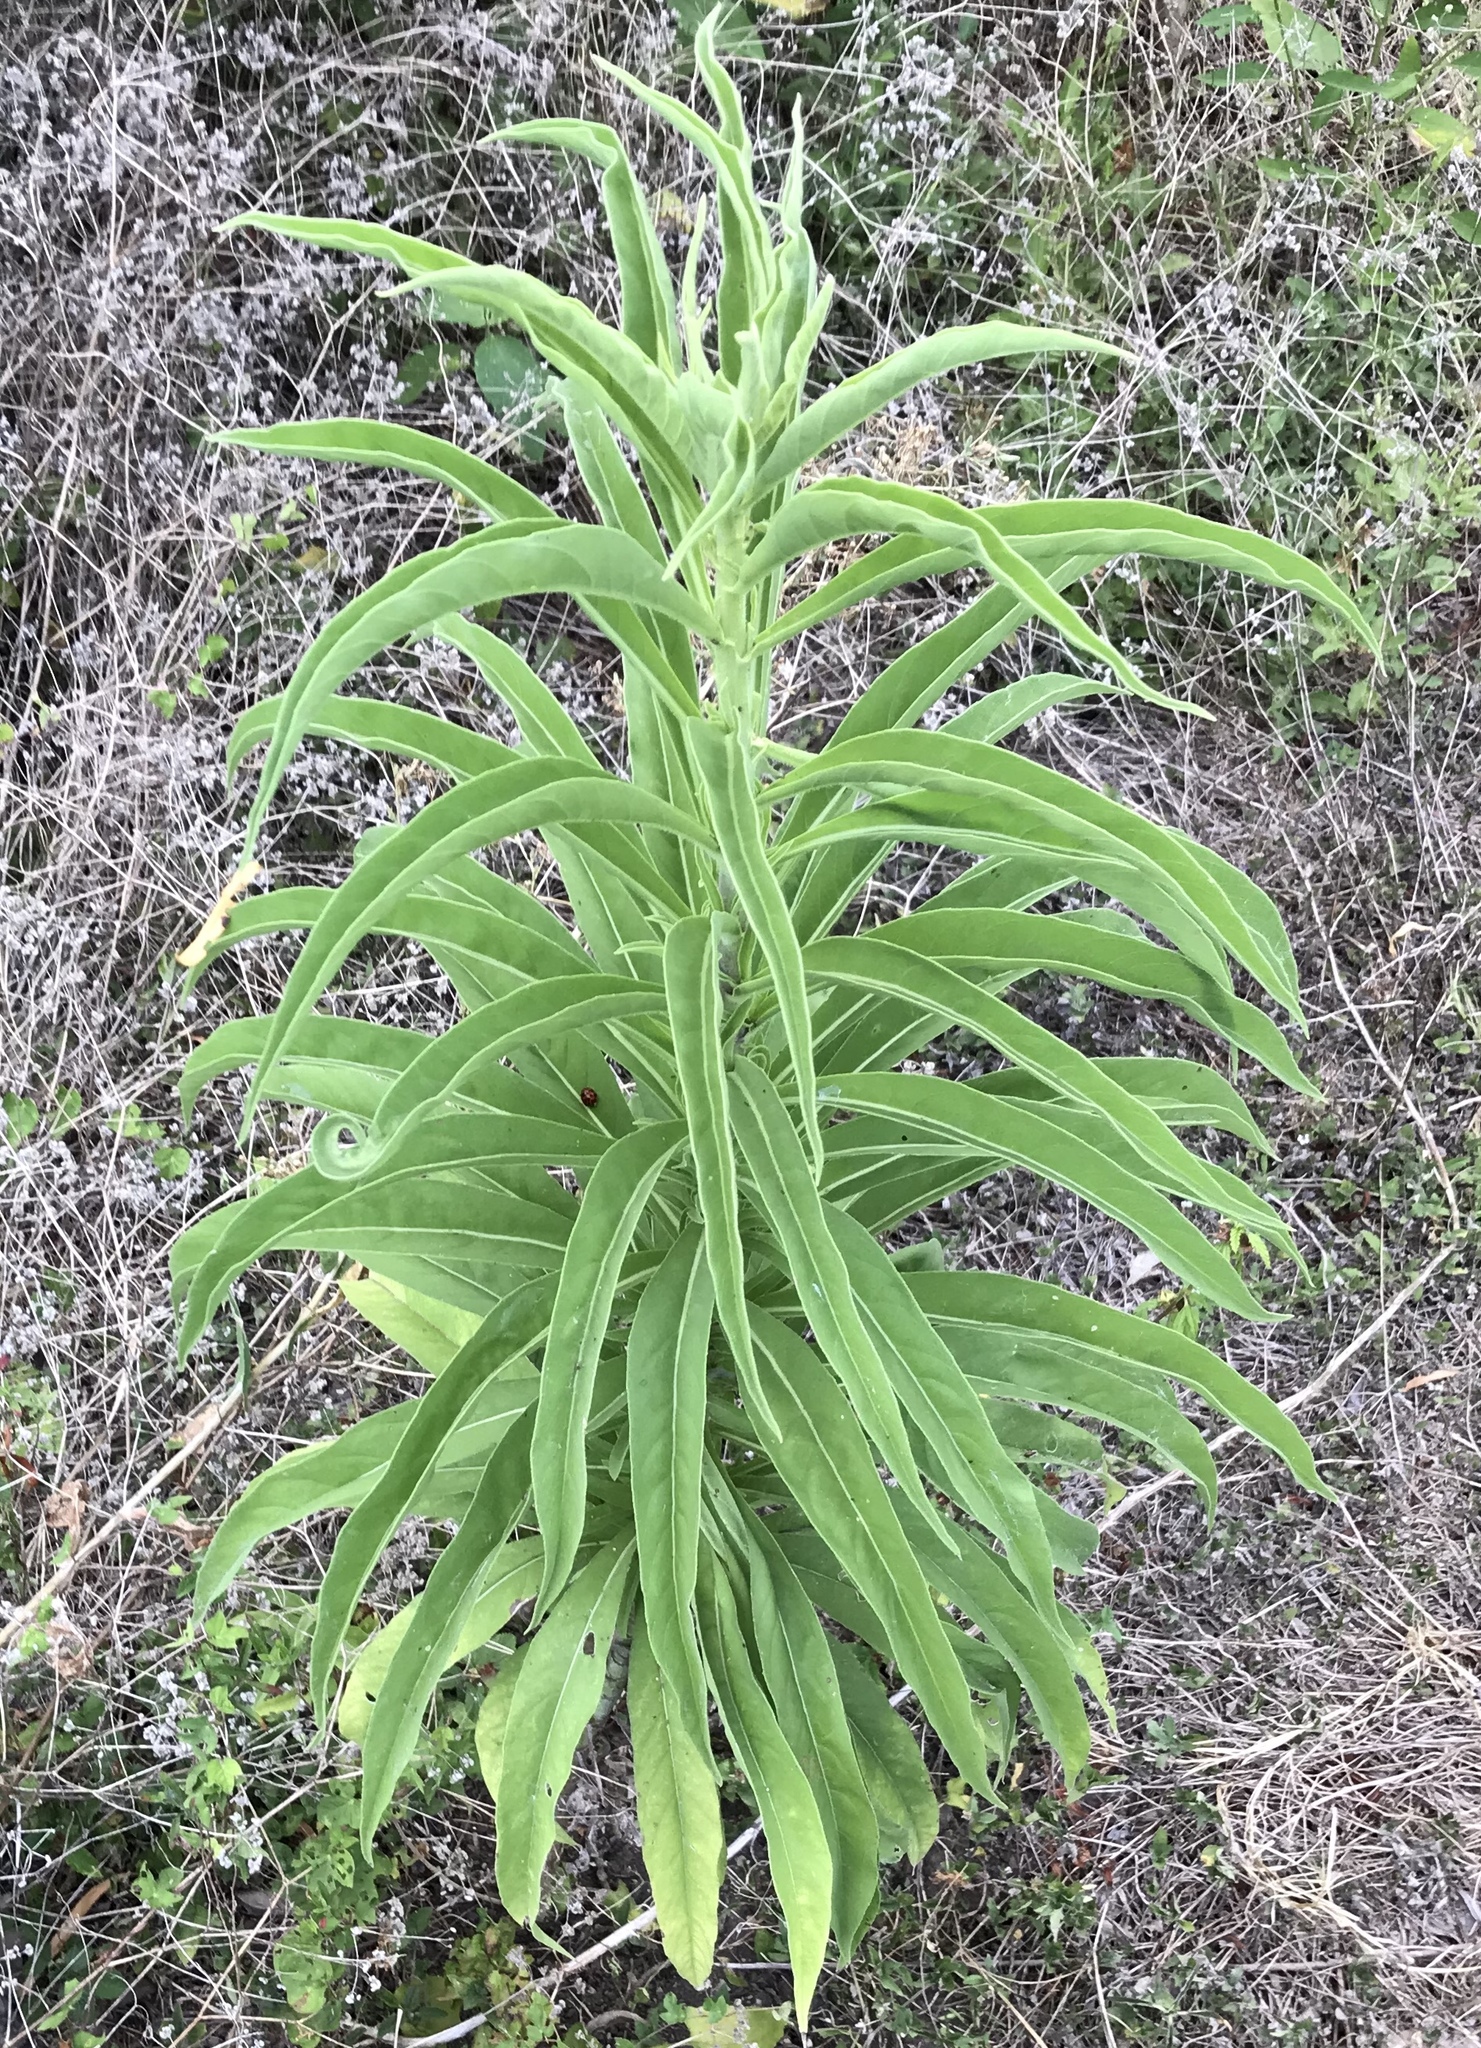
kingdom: Plantae
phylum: Tracheophyta
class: Magnoliopsida
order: Asterales
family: Asteraceae
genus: Helianthus
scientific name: Helianthus maximiliani
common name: Maximilian's sunflower
